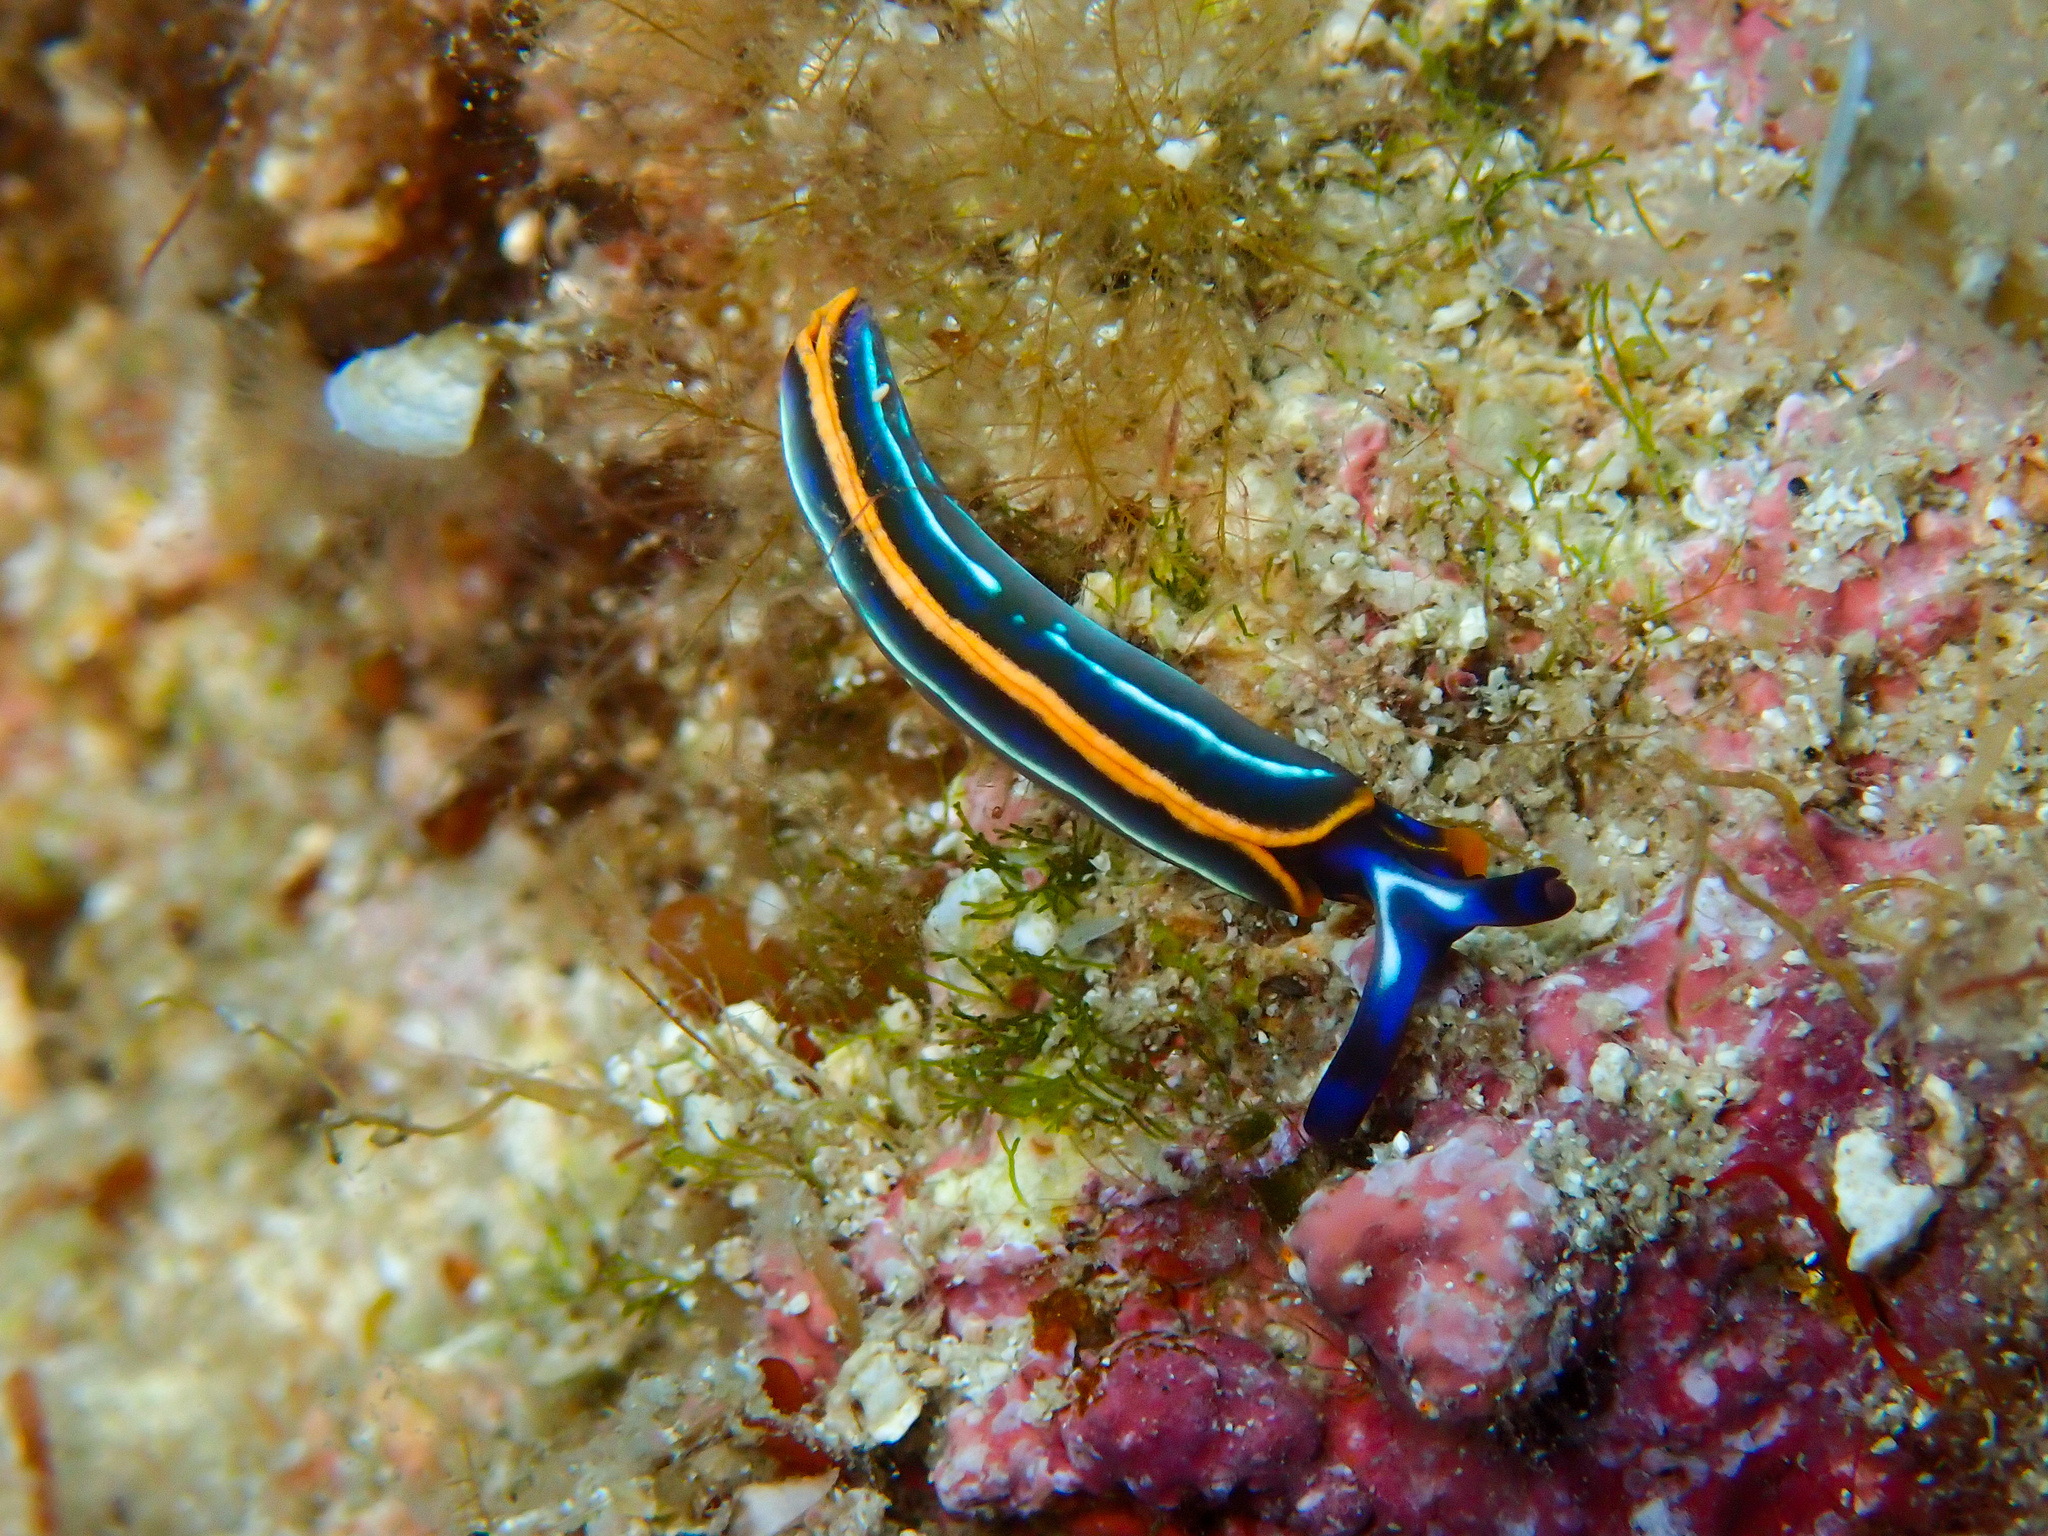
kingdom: Animalia
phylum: Mollusca
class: Gastropoda
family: Plakobranchidae
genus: Thuridilla
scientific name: Thuridilla hopei
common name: Splendid elysia
